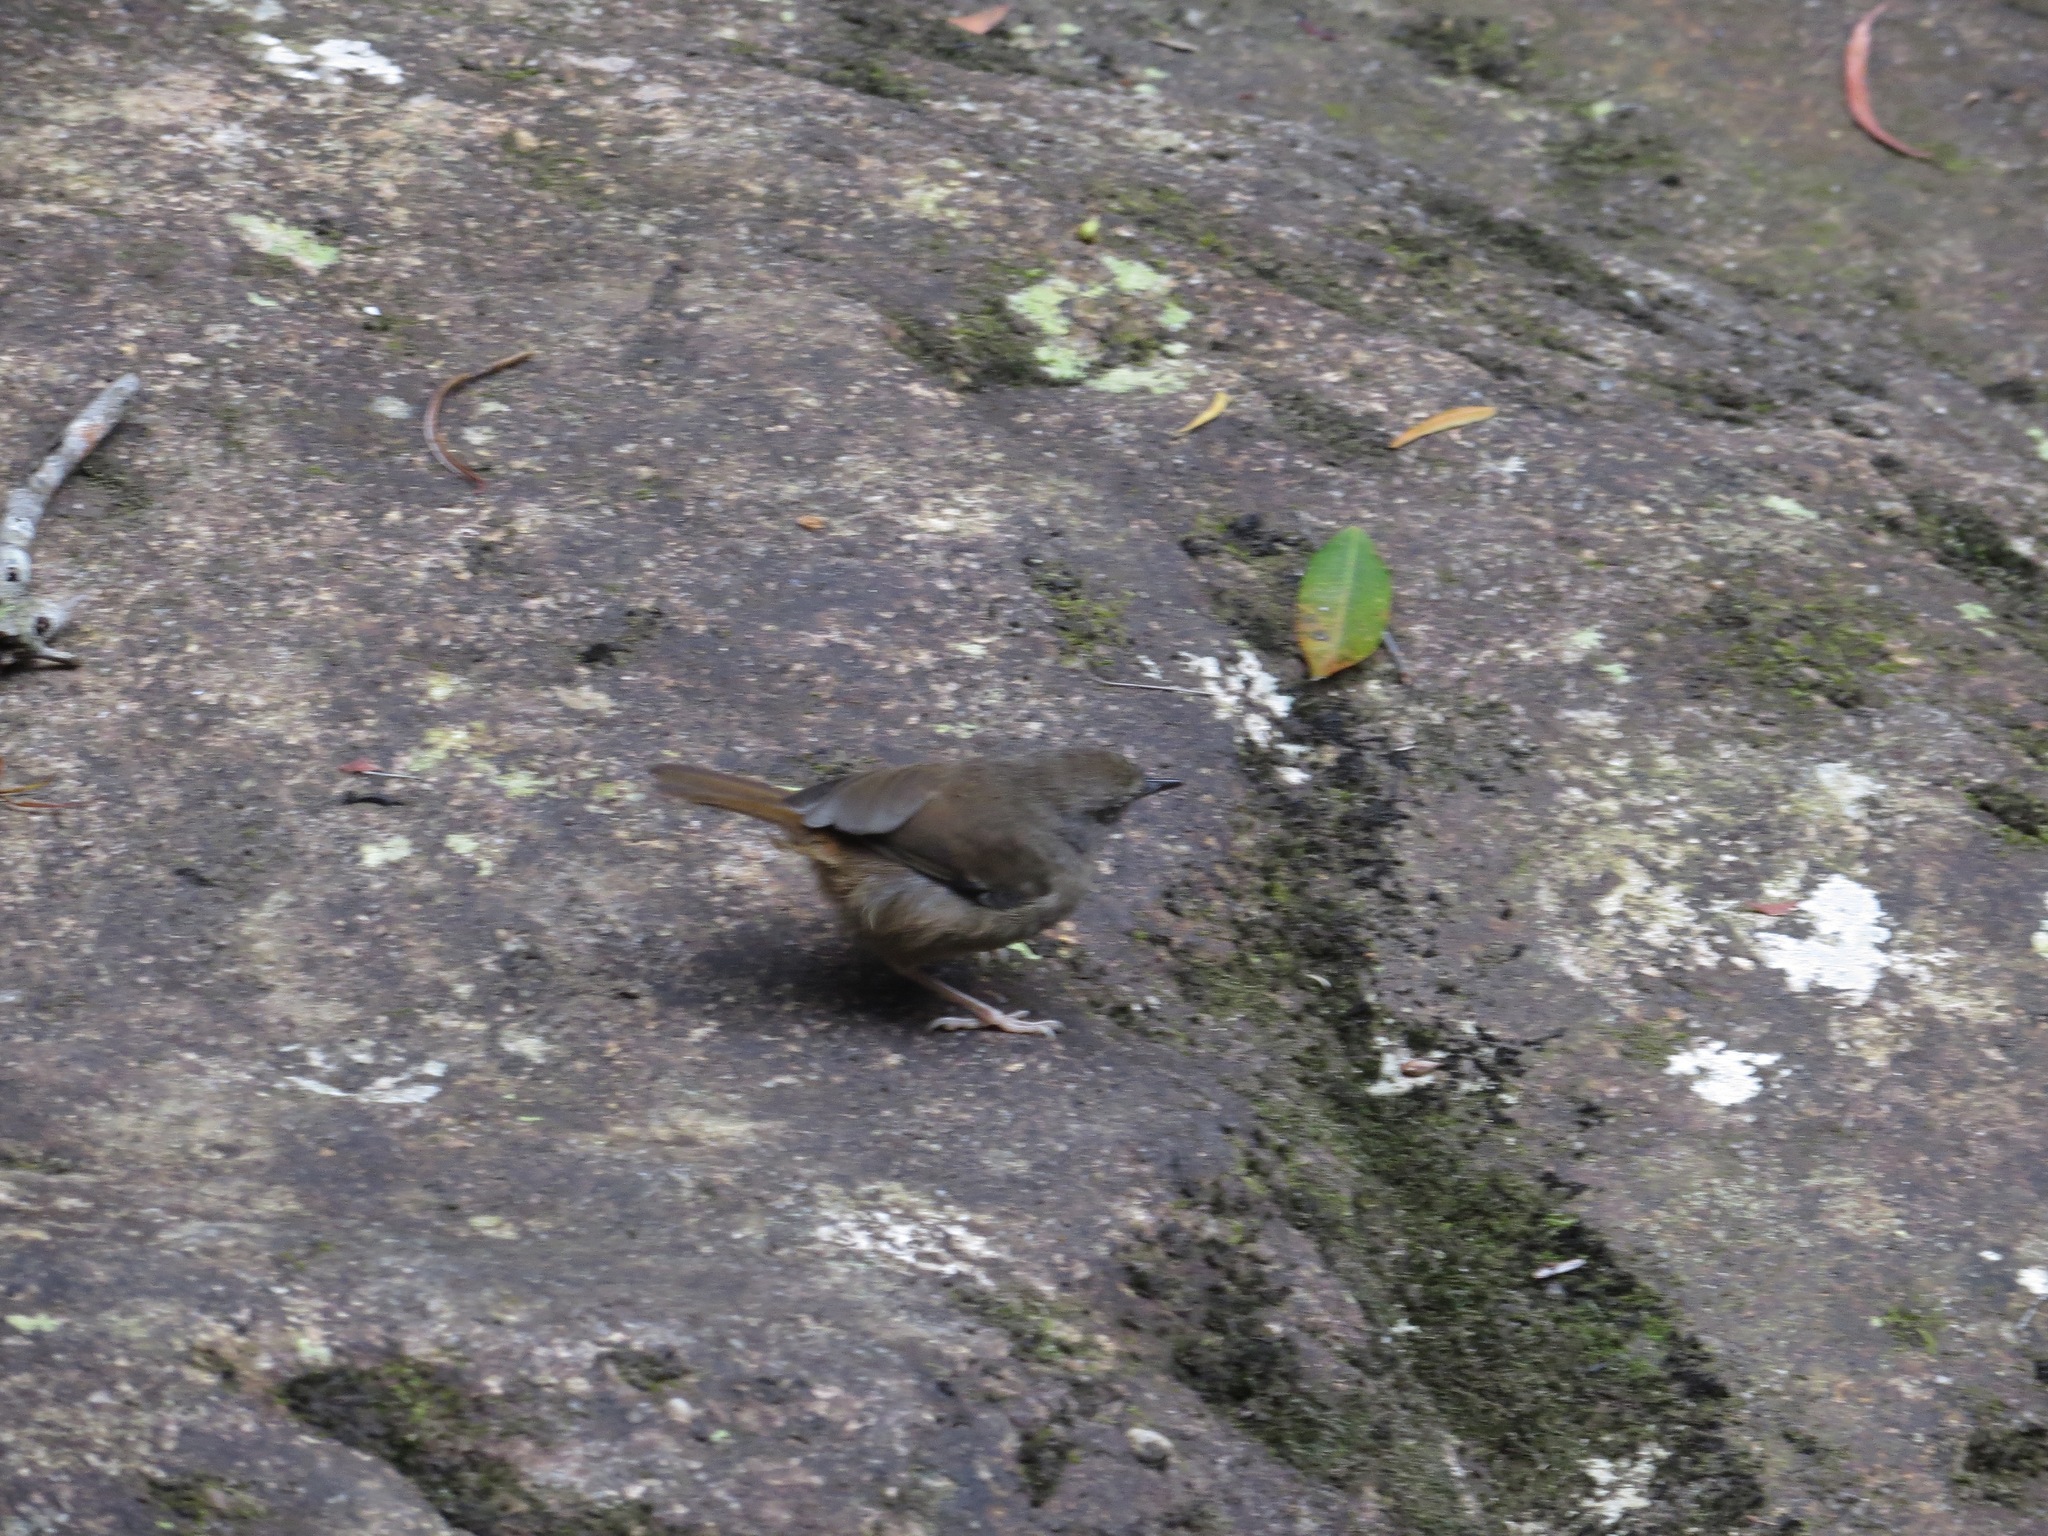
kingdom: Animalia
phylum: Chordata
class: Aves
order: Passeriformes
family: Acanthizidae
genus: Origma
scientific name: Origma solitaria
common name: Rockwarbler
